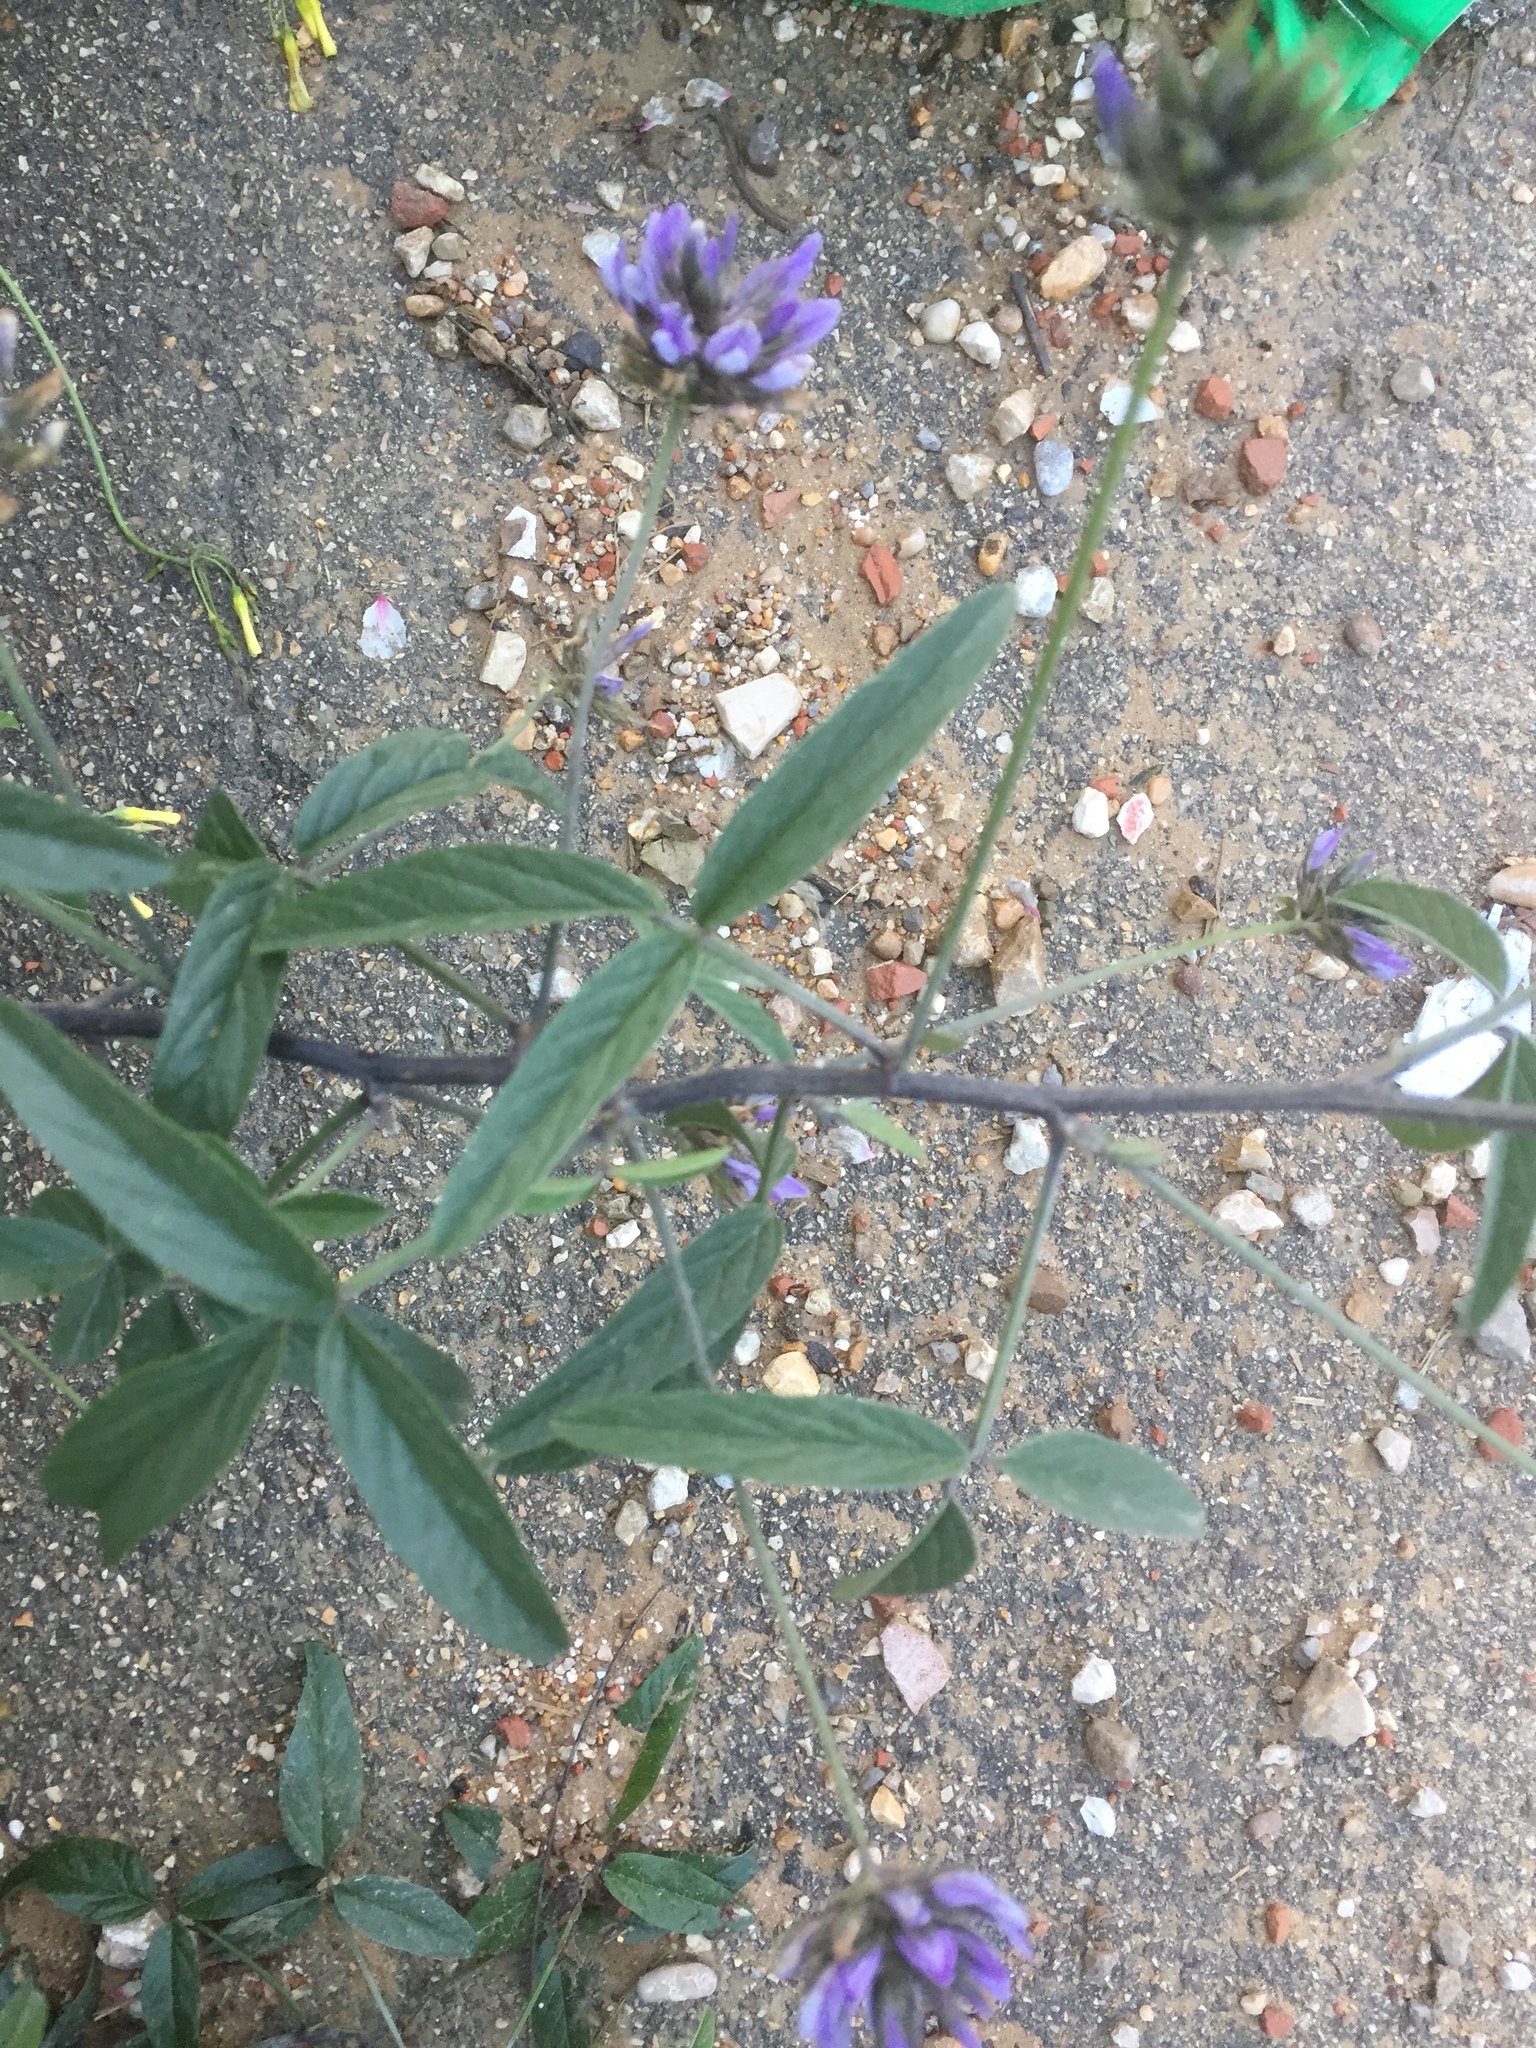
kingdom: Plantae
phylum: Tracheophyta
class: Magnoliopsida
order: Fabales
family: Fabaceae
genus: Bituminaria
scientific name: Bituminaria bituminosa
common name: Arabian pea
